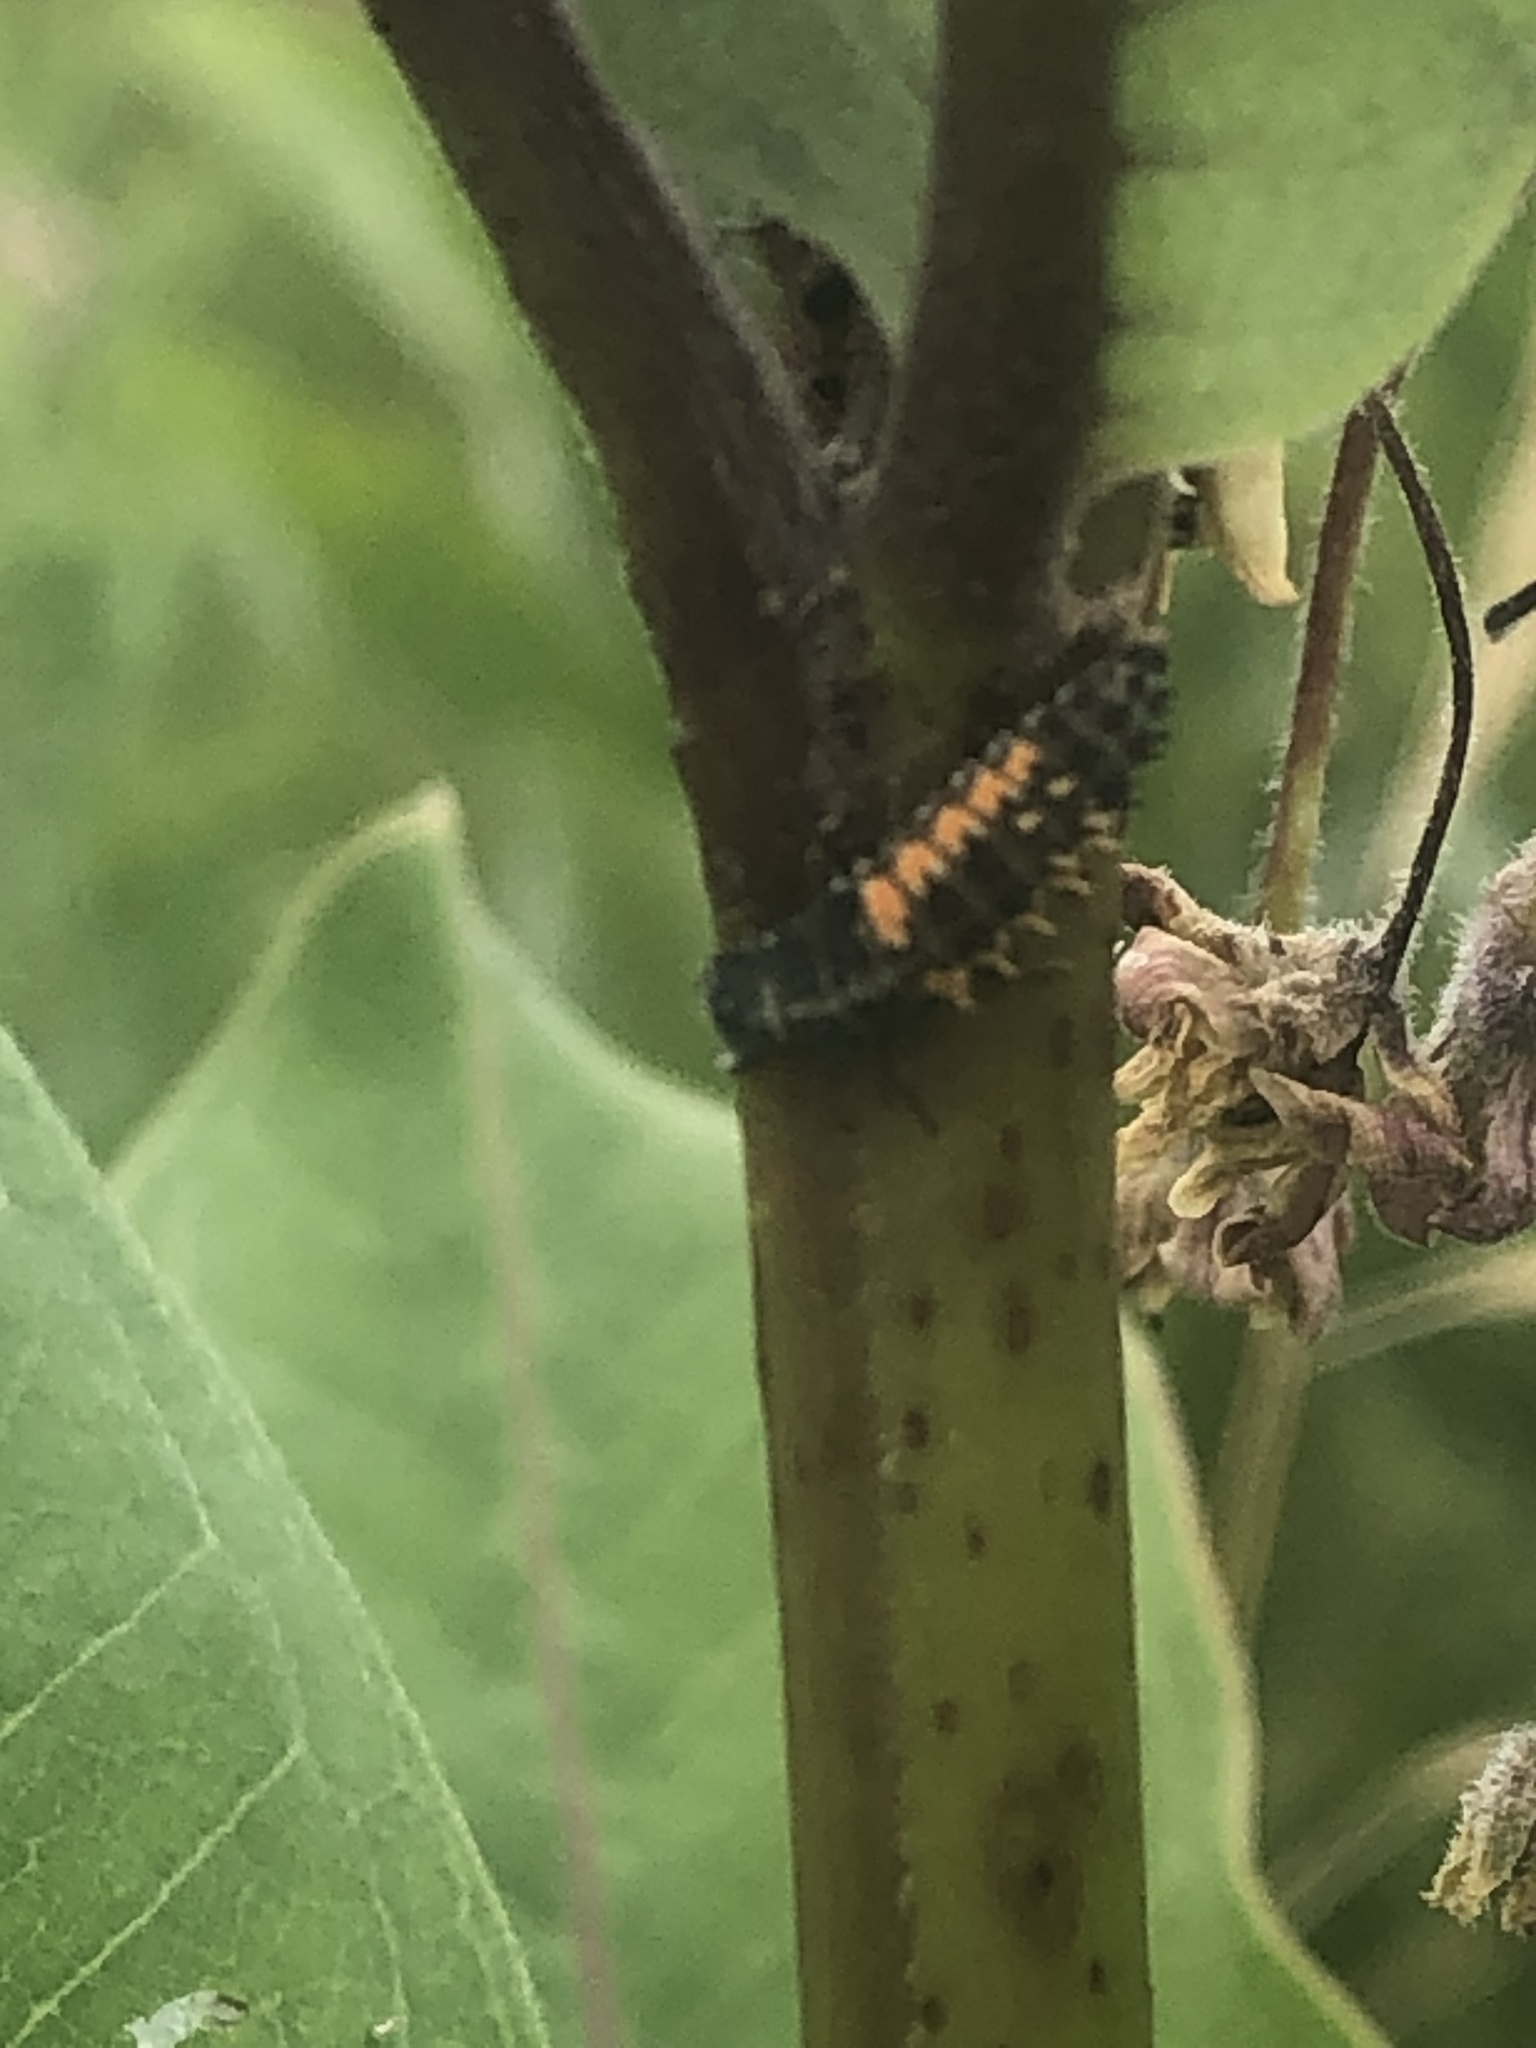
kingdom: Animalia
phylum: Arthropoda
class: Insecta
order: Coleoptera
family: Coccinellidae
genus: Harmonia
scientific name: Harmonia axyridis
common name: Harlequin ladybird
